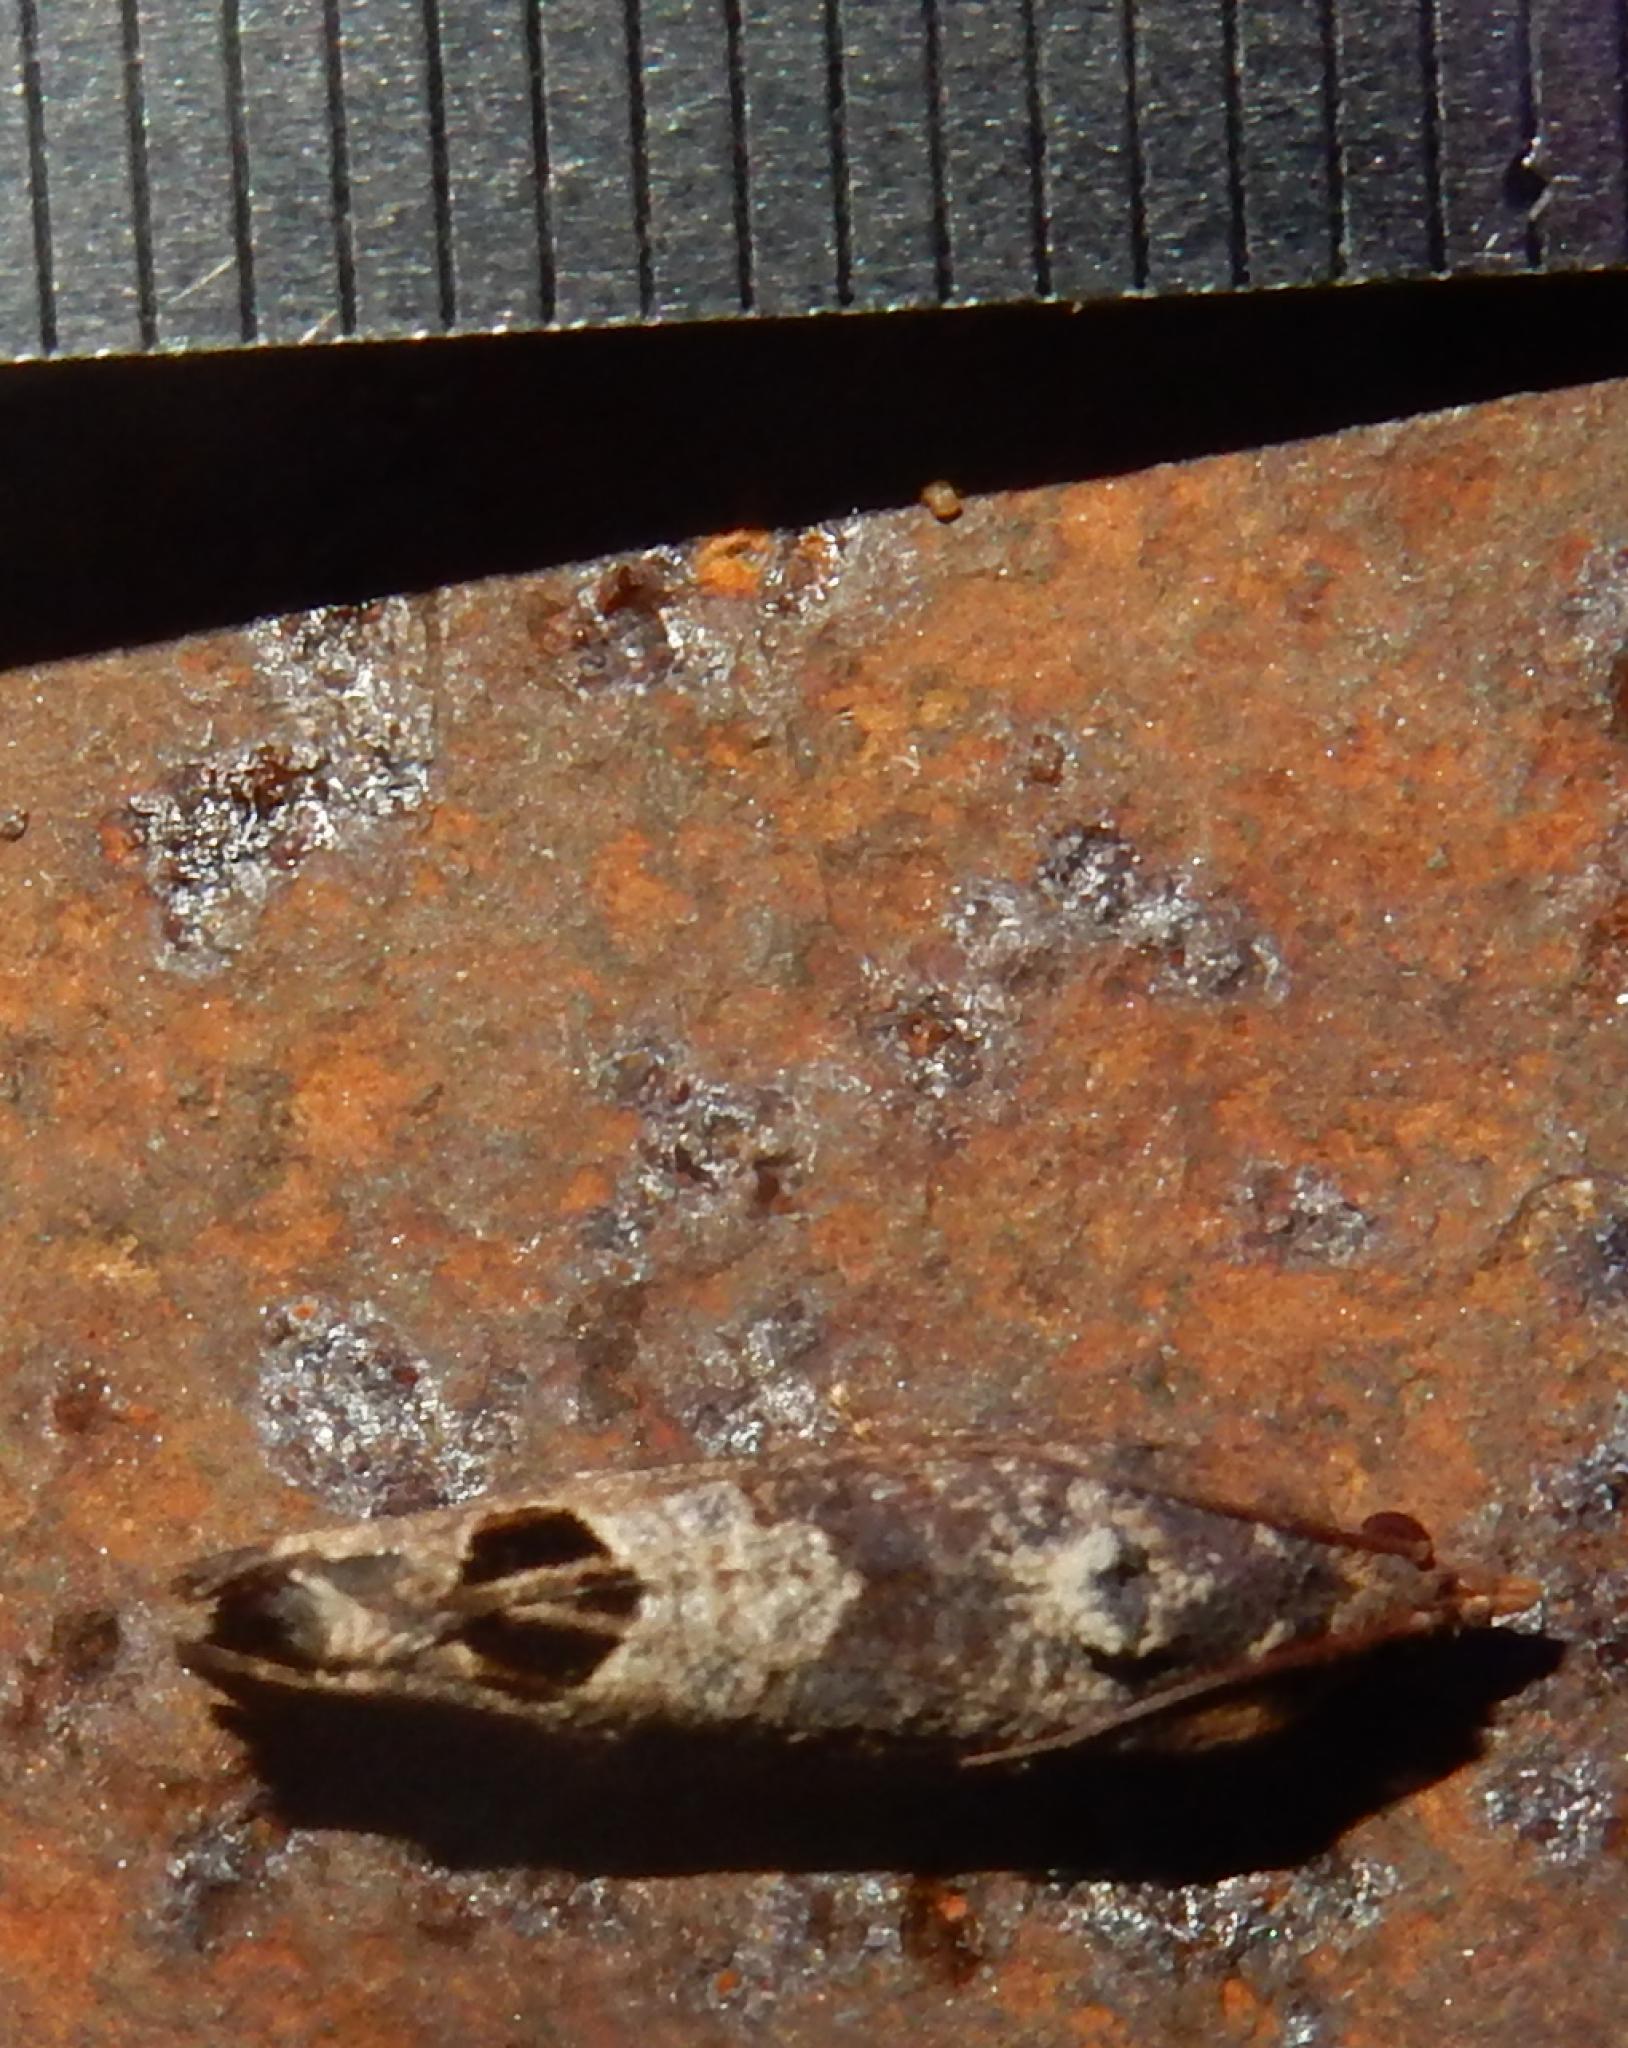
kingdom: Animalia
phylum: Arthropoda
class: Insecta
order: Lepidoptera
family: Tortricidae
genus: Cryptophlebia
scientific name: Cryptophlebia peltastica
